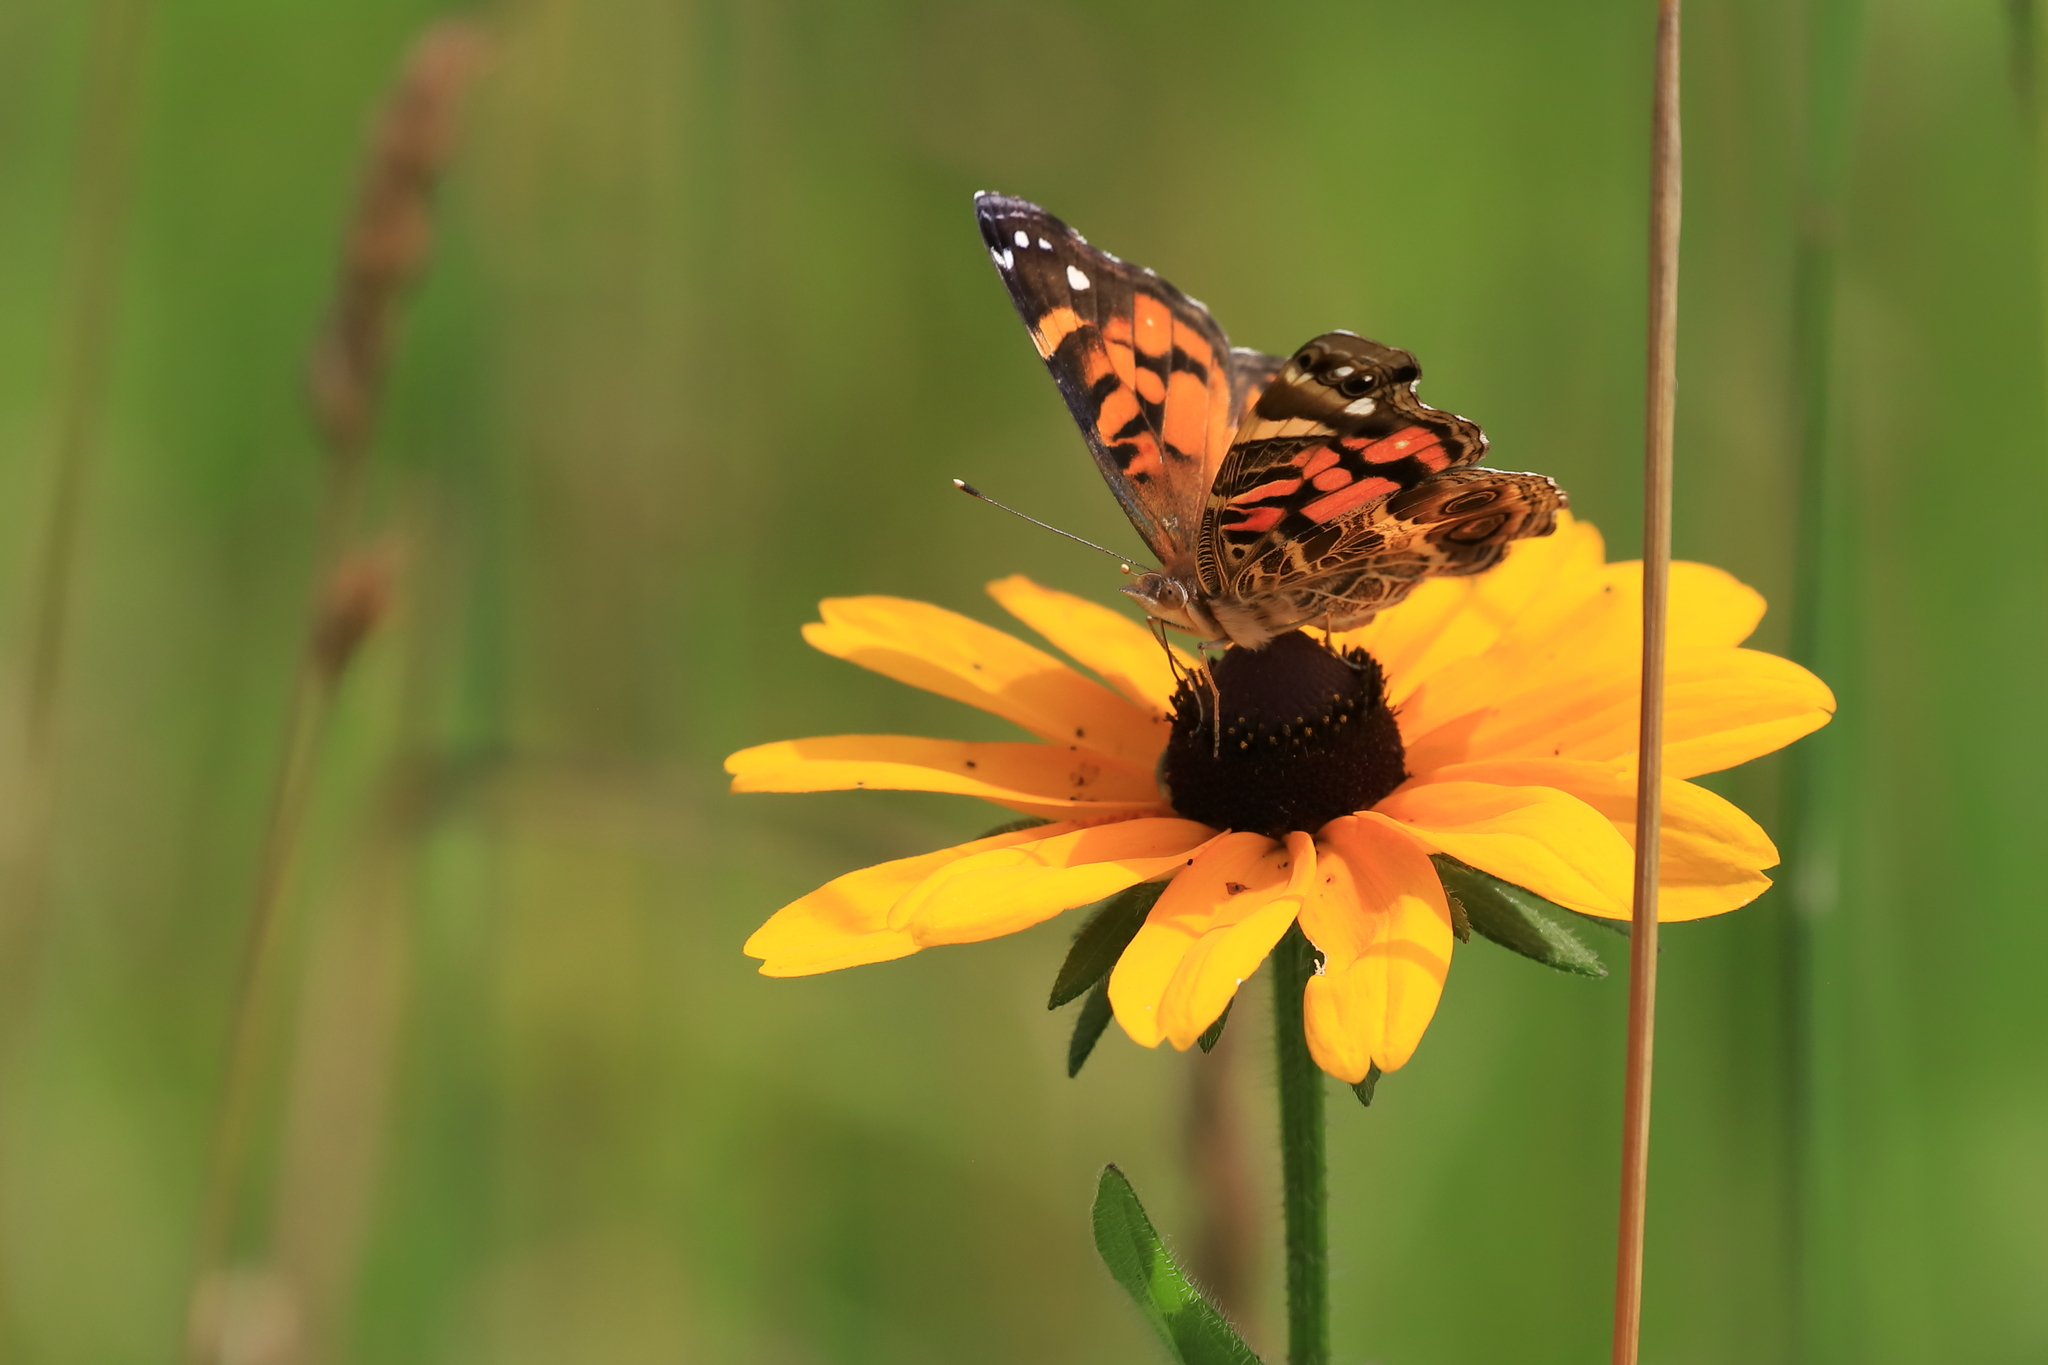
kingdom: Animalia
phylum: Arthropoda
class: Insecta
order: Lepidoptera
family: Nymphalidae
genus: Vanessa
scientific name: Vanessa virginiensis
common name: American lady
